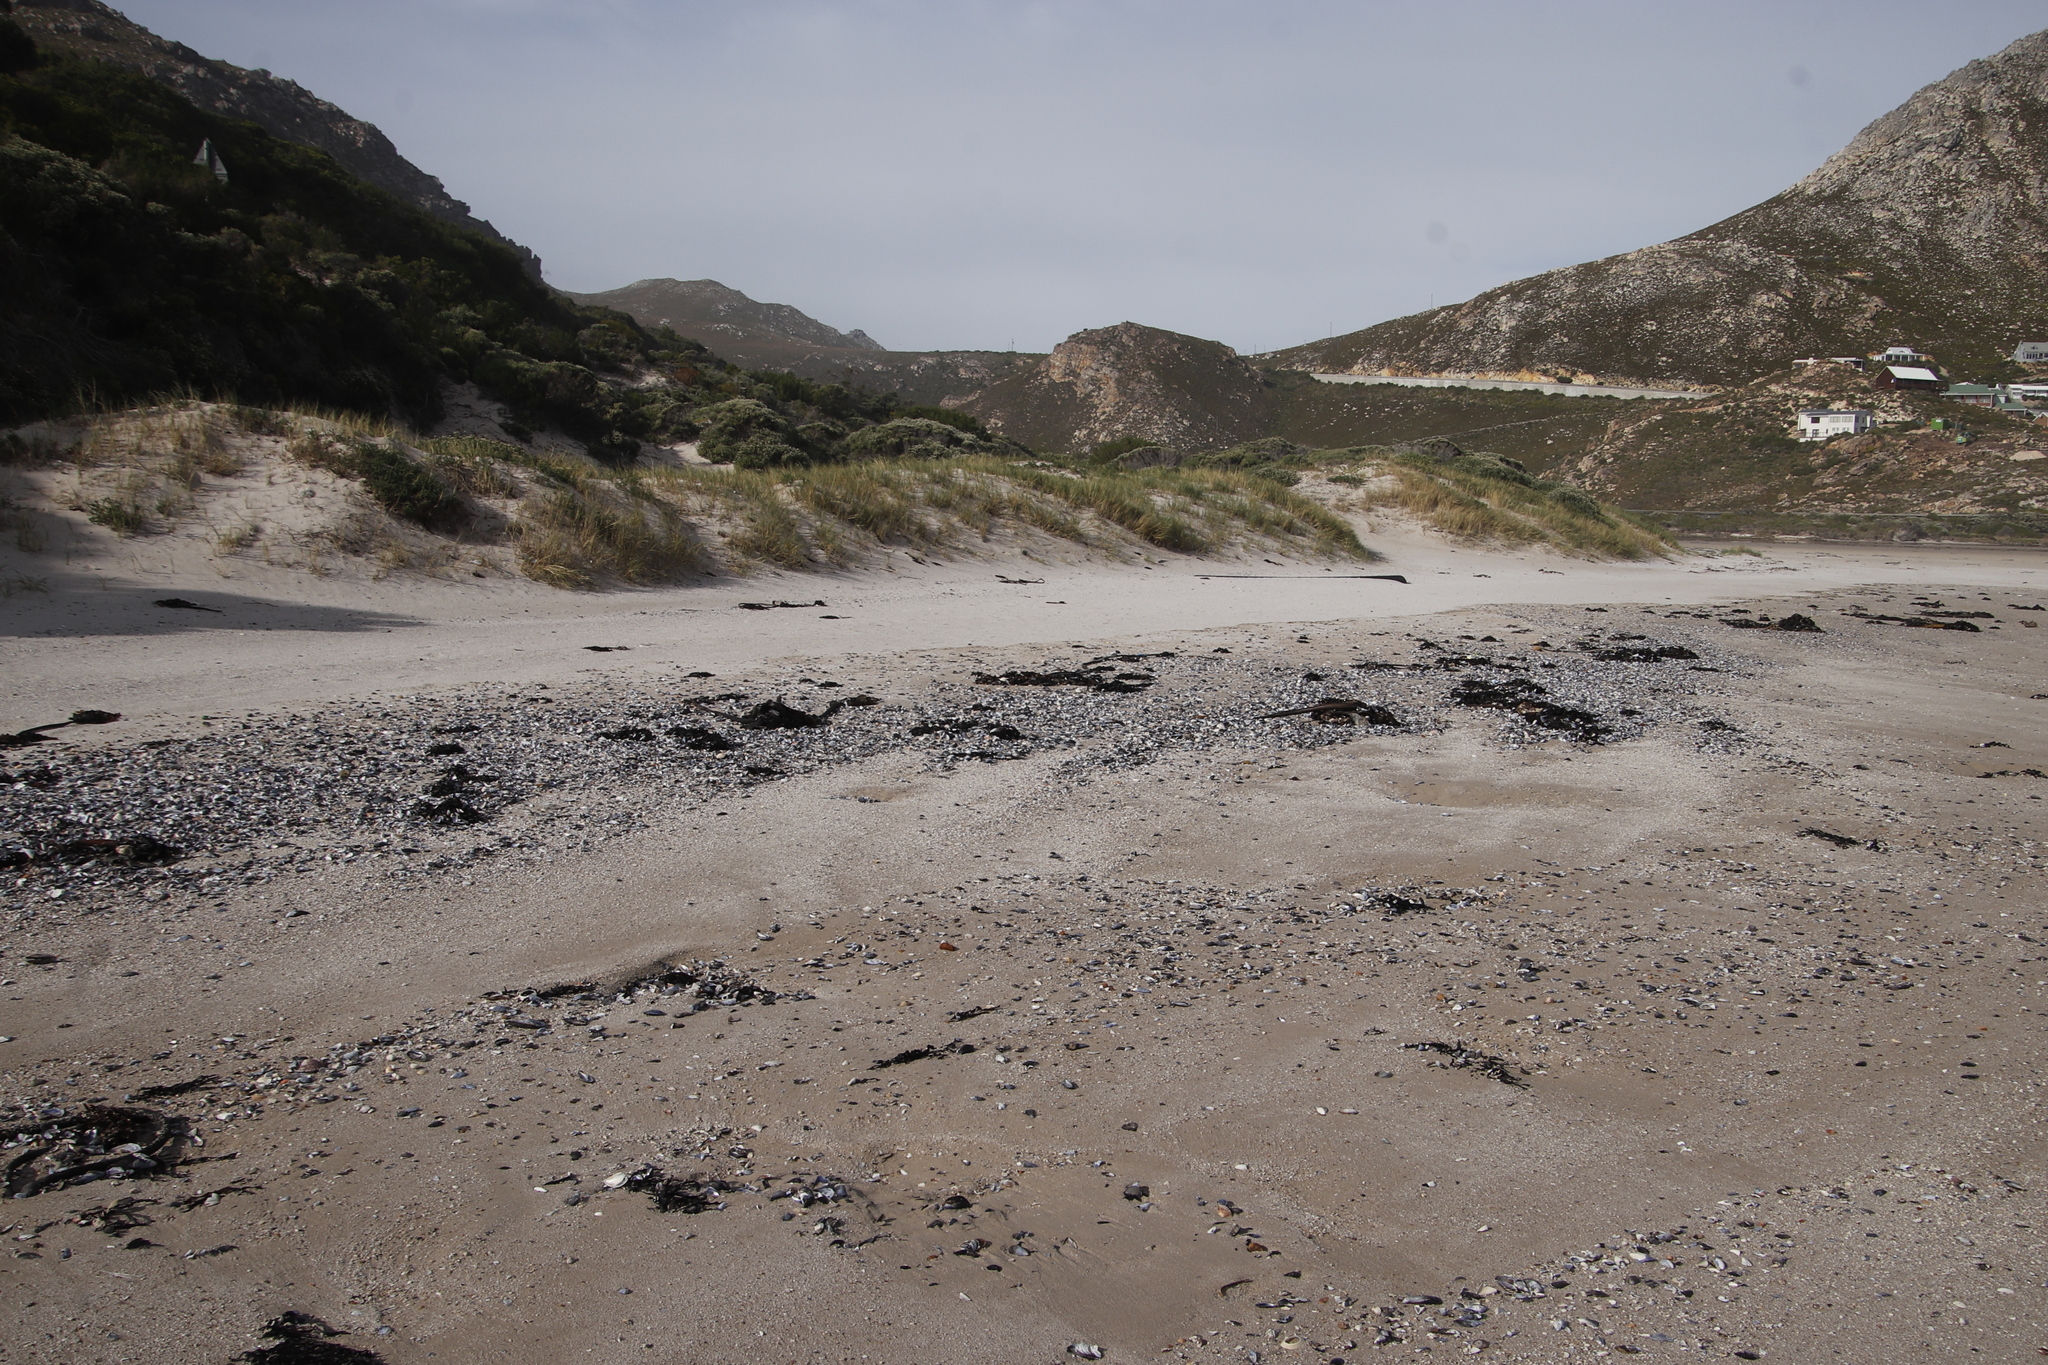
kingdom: Chromista
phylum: Ochrophyta
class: Phaeophyceae
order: Laminariales
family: Lessoniaceae
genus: Ecklonia
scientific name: Ecklonia
